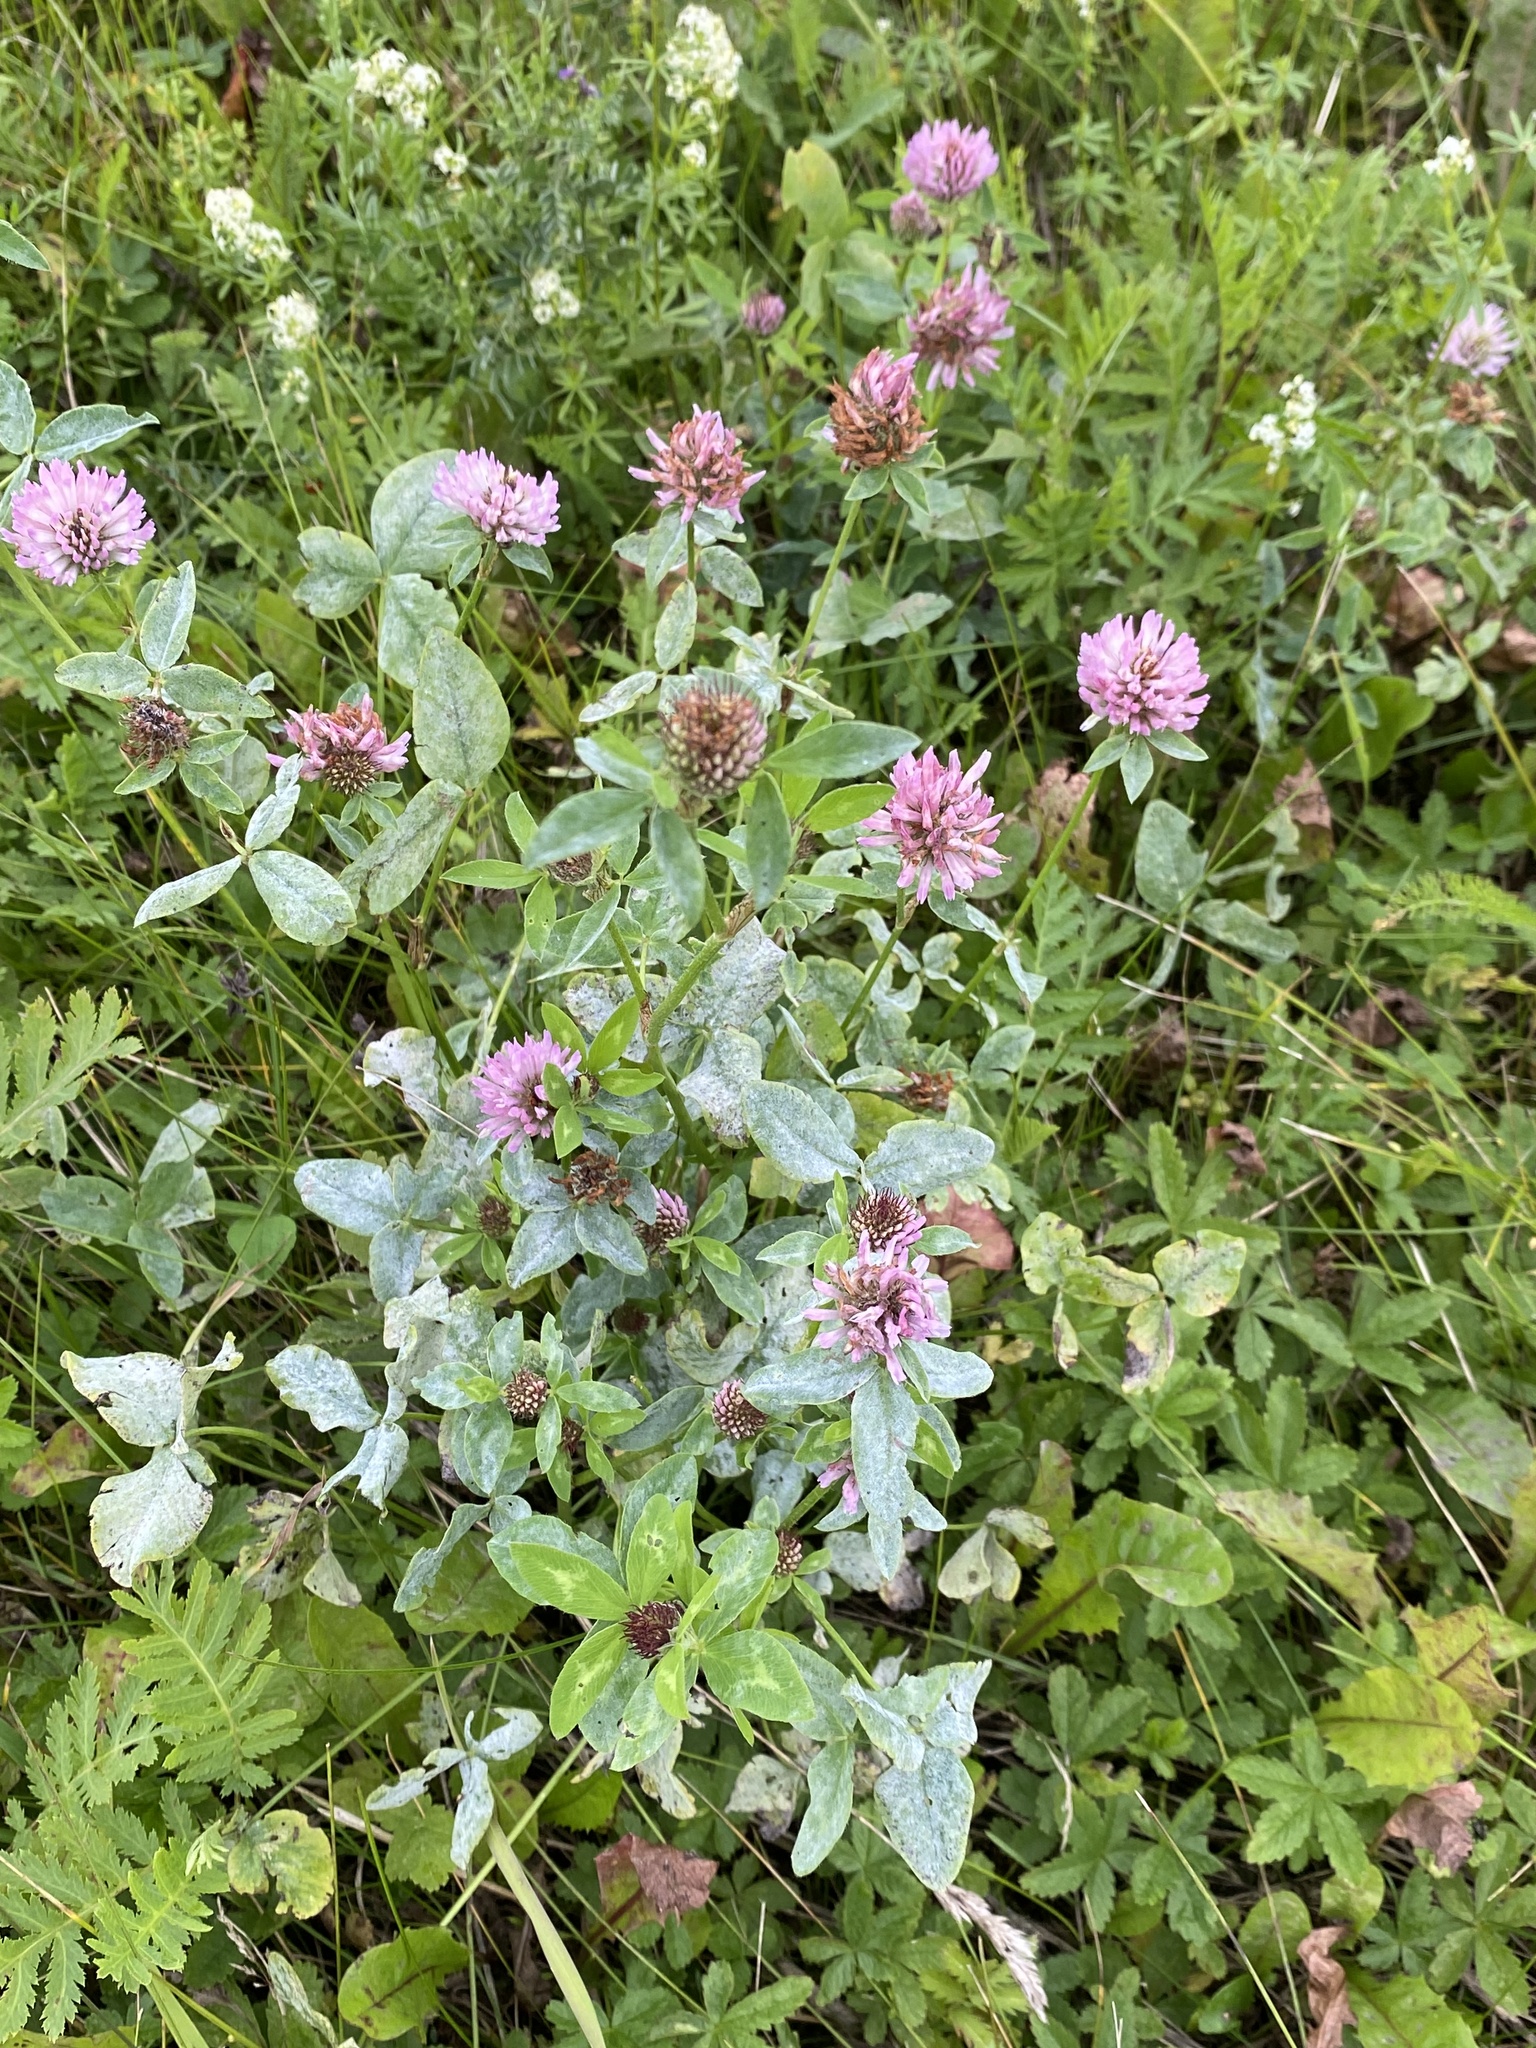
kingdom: Plantae
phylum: Tracheophyta
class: Magnoliopsida
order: Fabales
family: Fabaceae
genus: Trifolium
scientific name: Trifolium pratense
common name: Red clover
